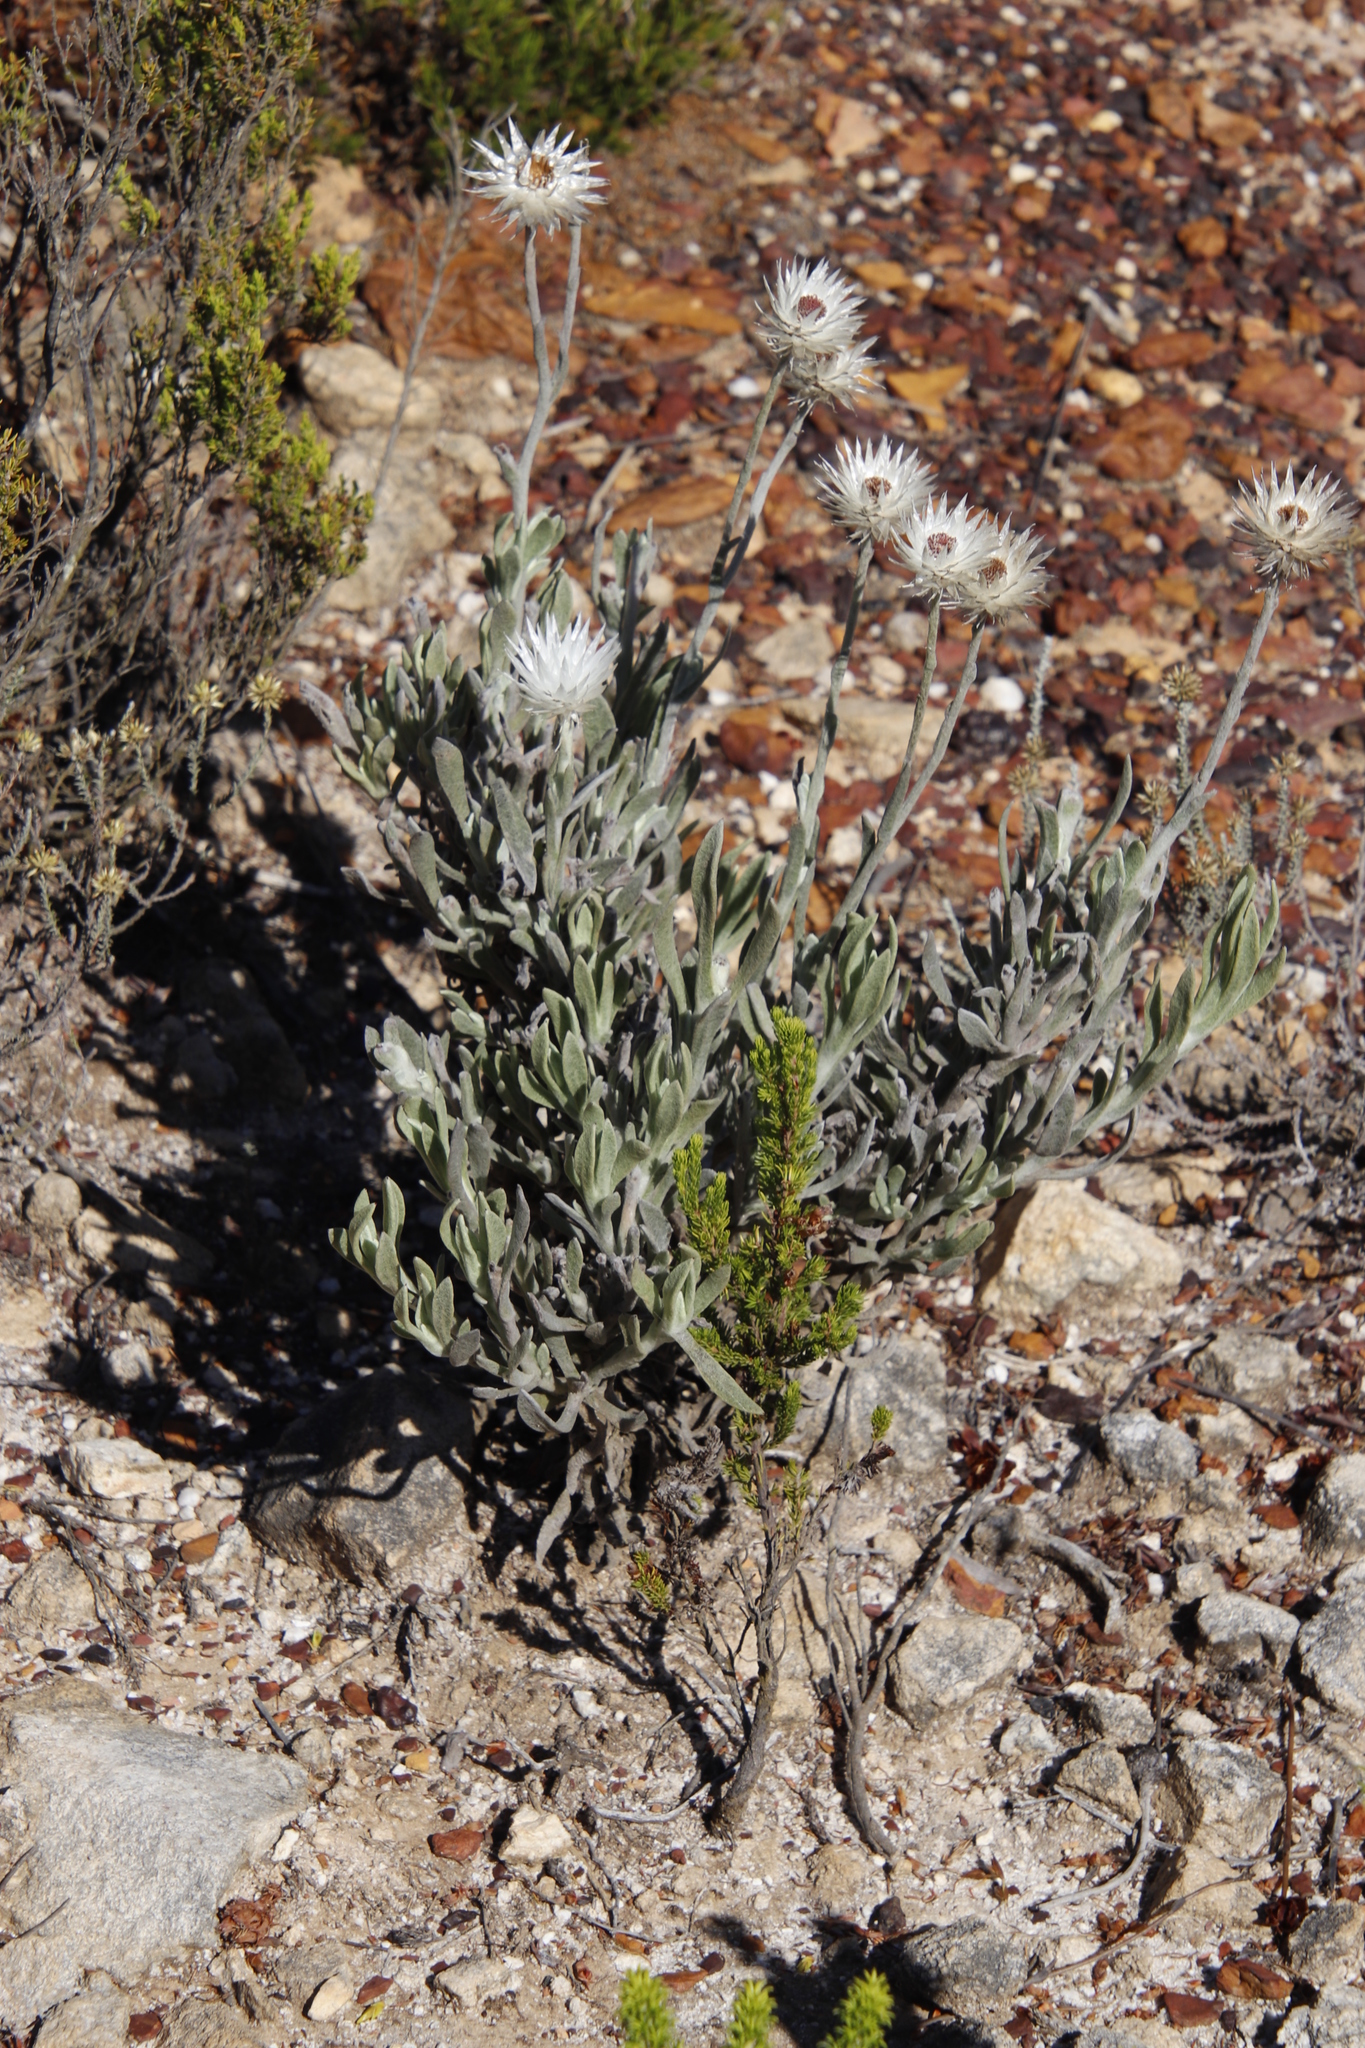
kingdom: Plantae
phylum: Tracheophyta
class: Magnoliopsida
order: Asterales
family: Asteraceae
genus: Syncarpha
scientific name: Syncarpha vestita
